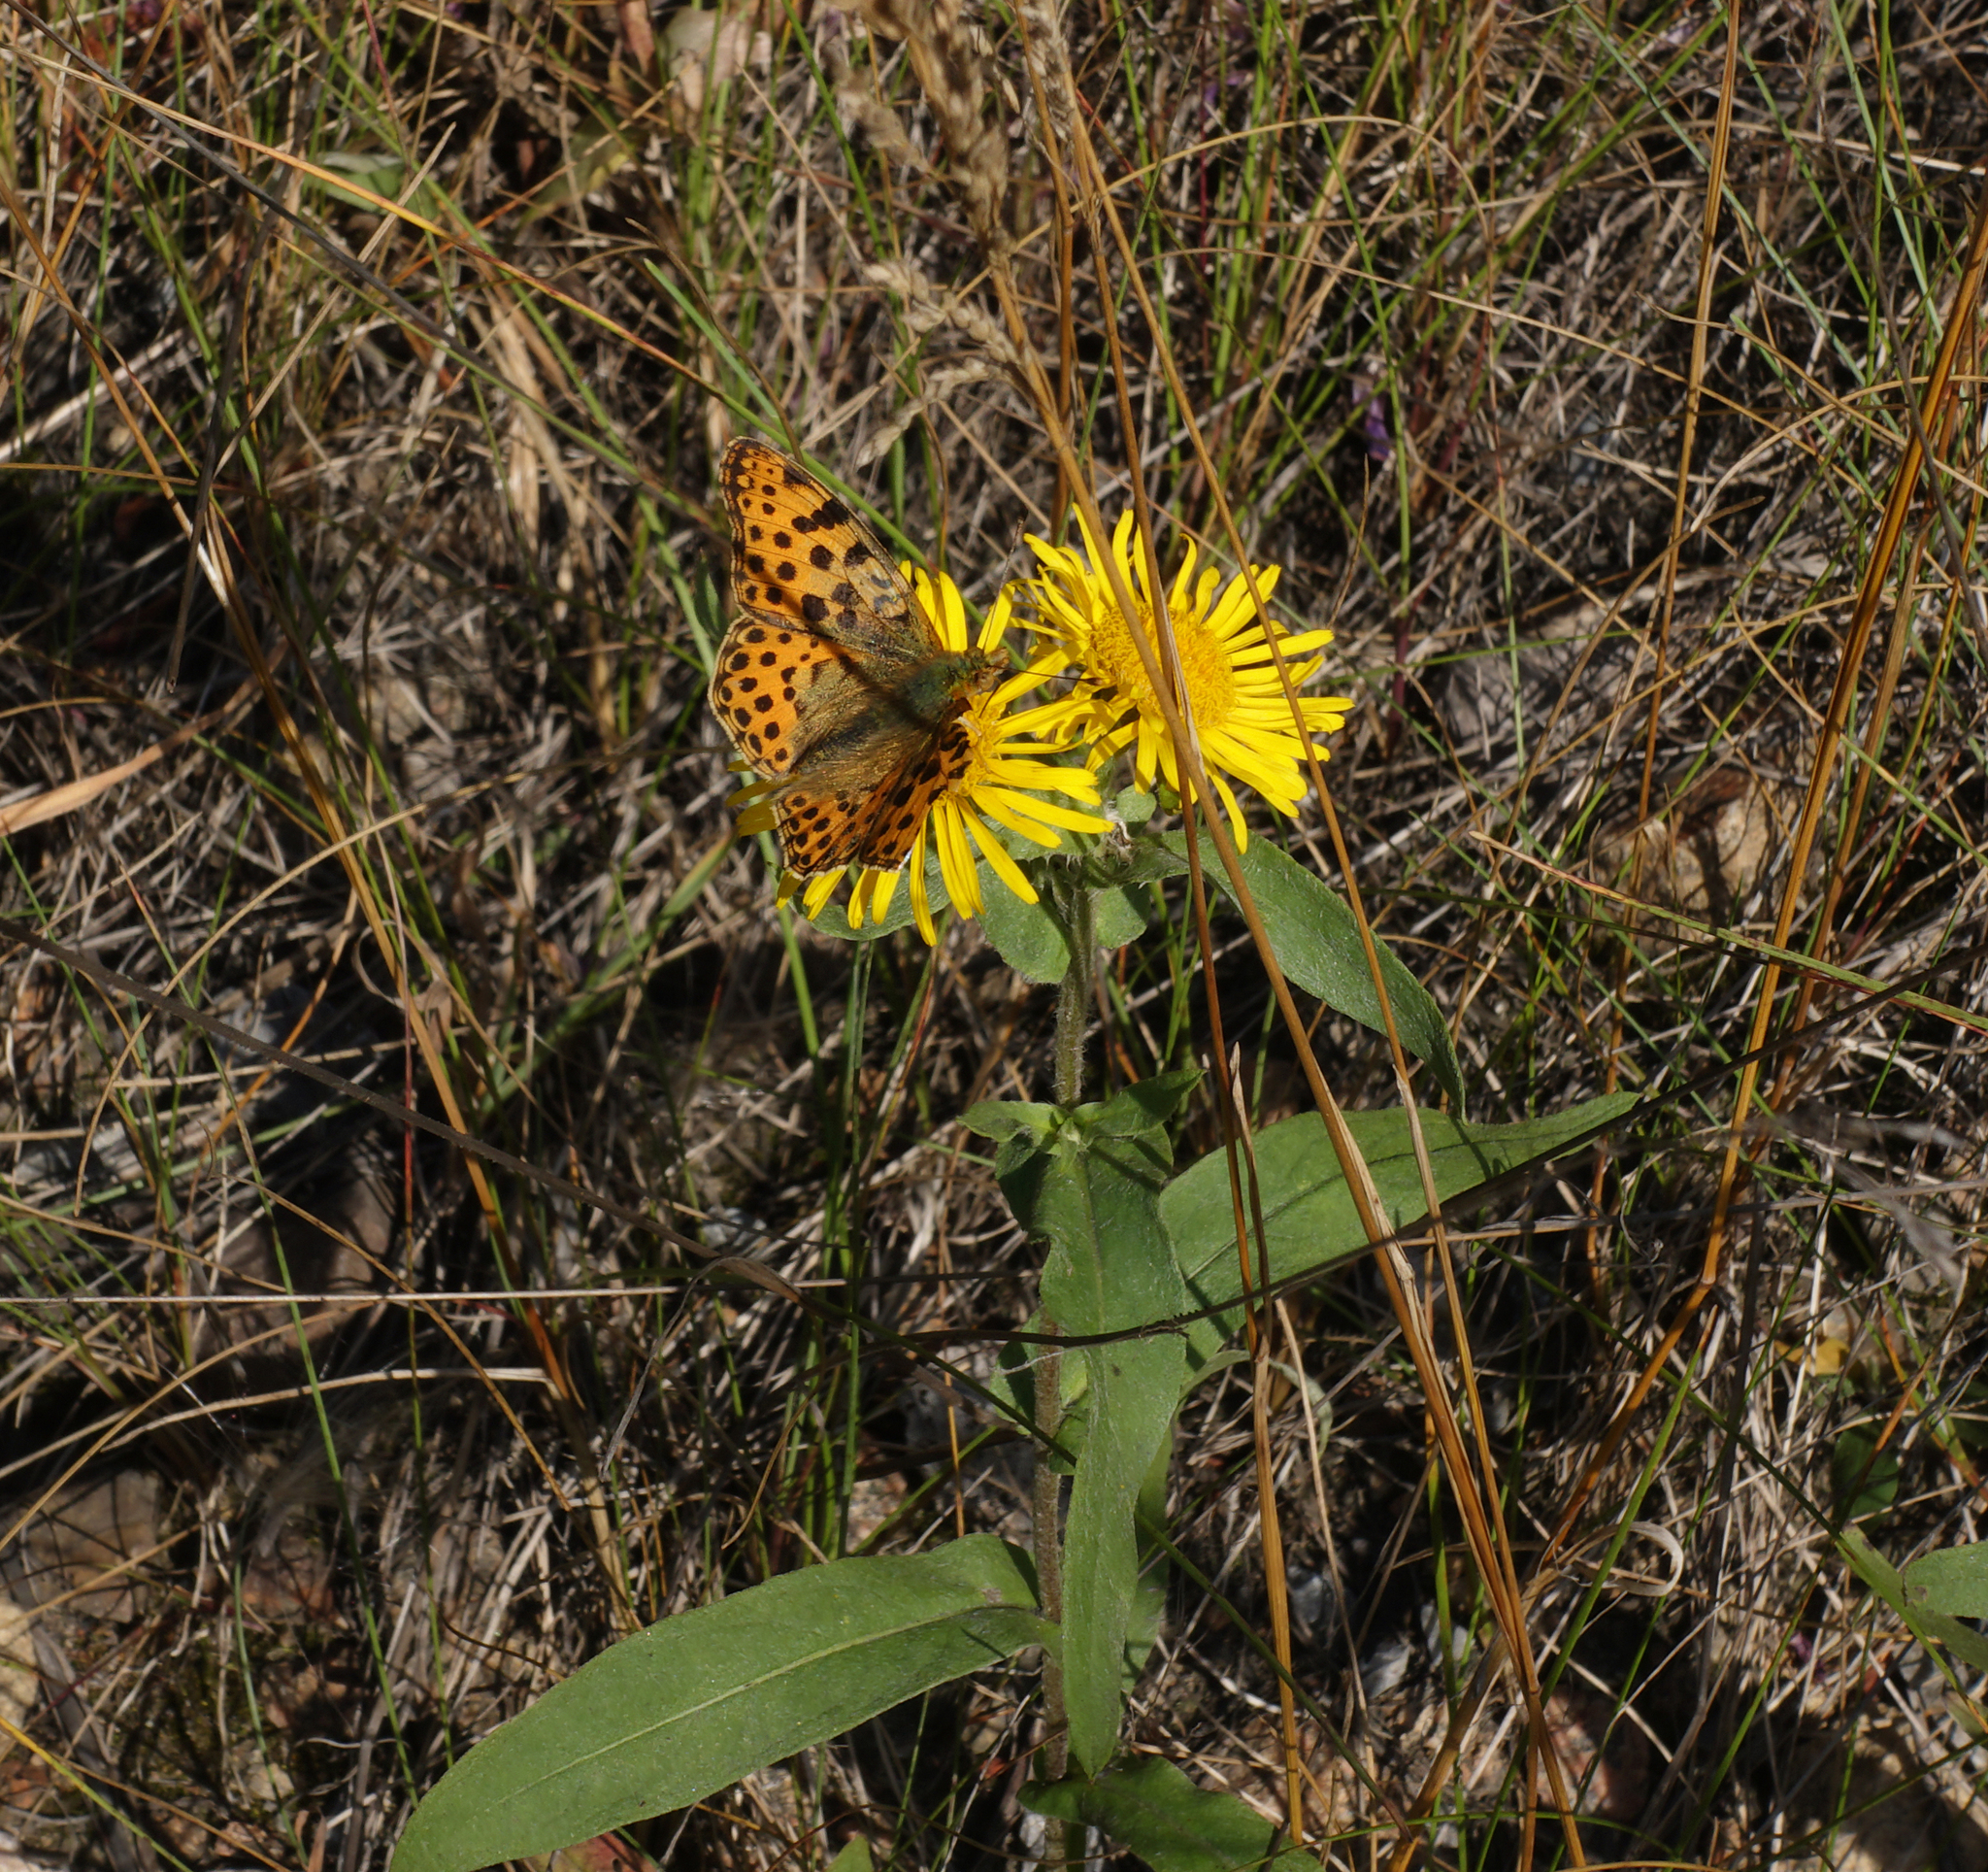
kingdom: Animalia
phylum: Arthropoda
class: Insecta
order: Lepidoptera
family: Nymphalidae
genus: Issoria
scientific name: Issoria lathonia
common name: Queen of spain fritillary
